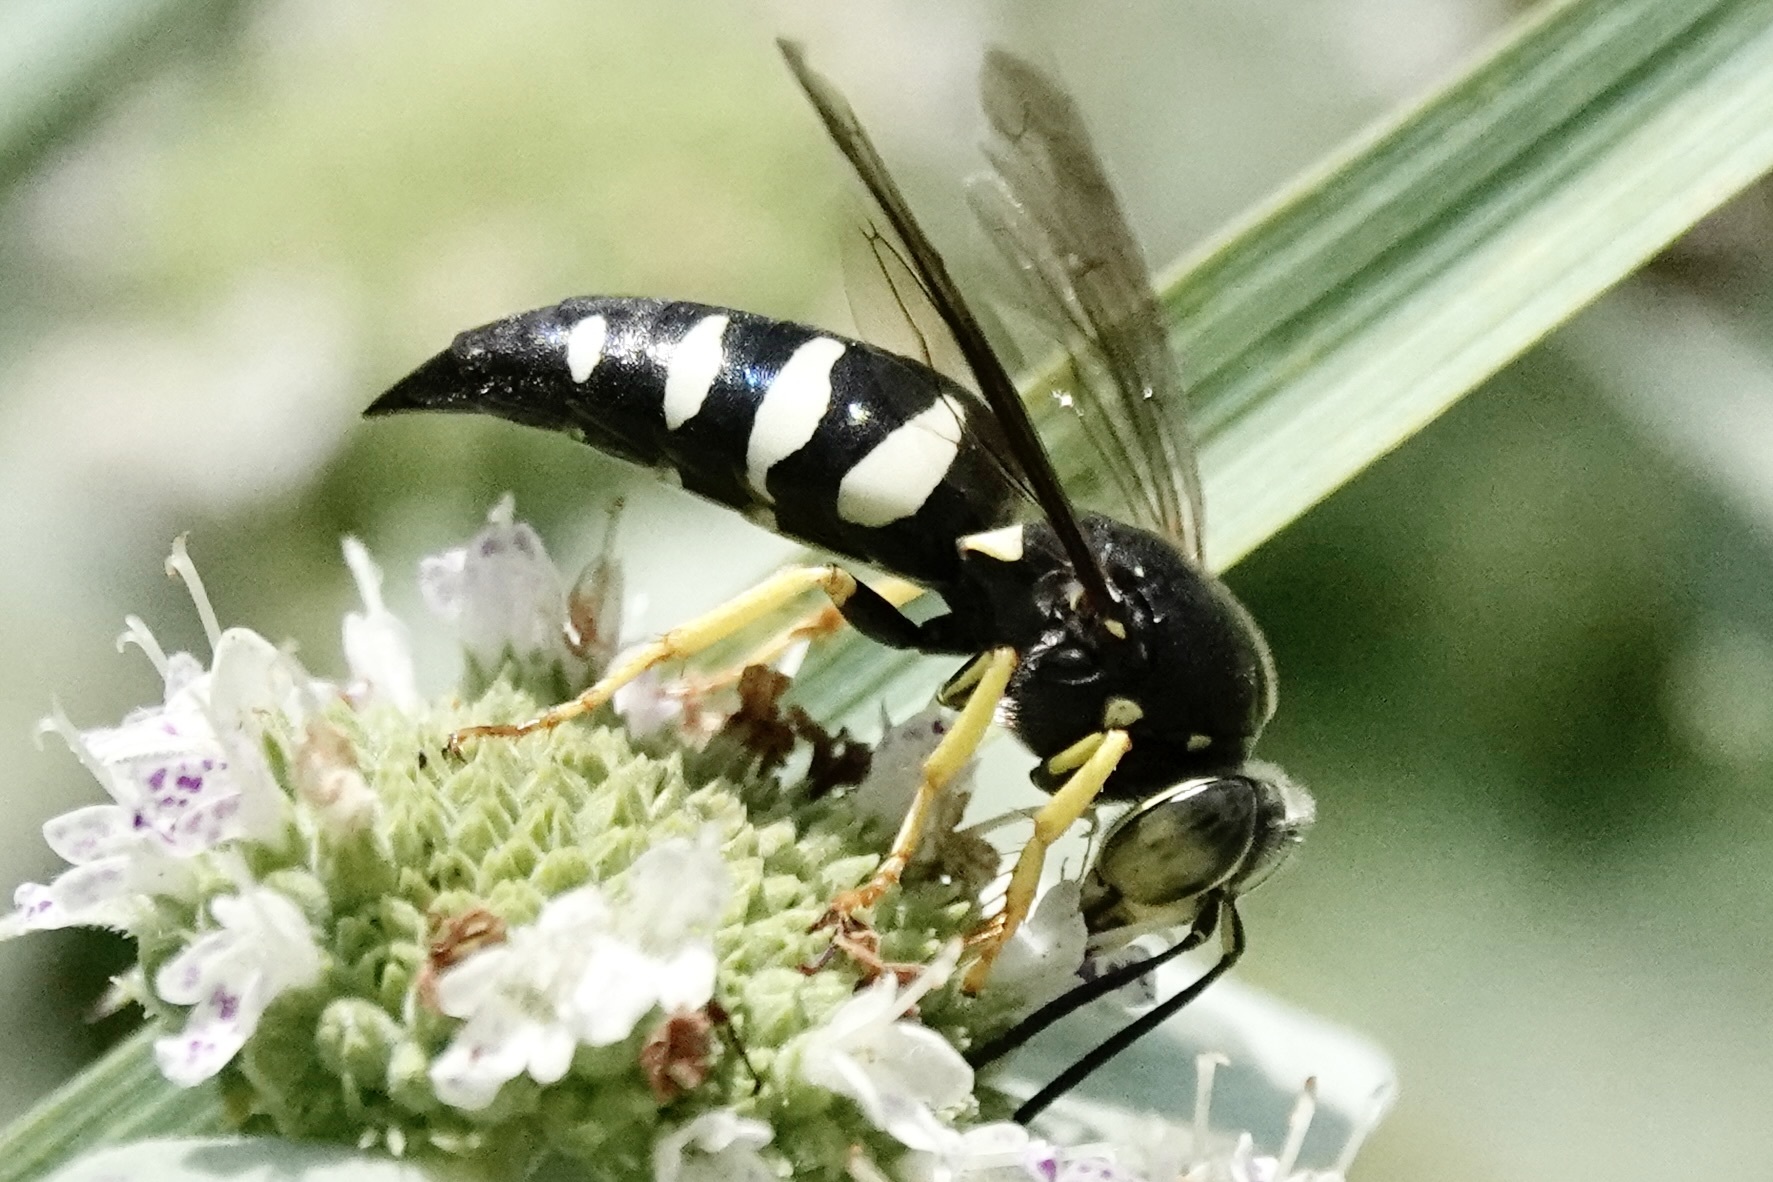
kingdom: Animalia
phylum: Arthropoda
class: Insecta
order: Hymenoptera
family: Crabronidae
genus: Bicyrtes
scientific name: Bicyrtes quadrifasciatus
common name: Four-banded stink bug hunter wasp
